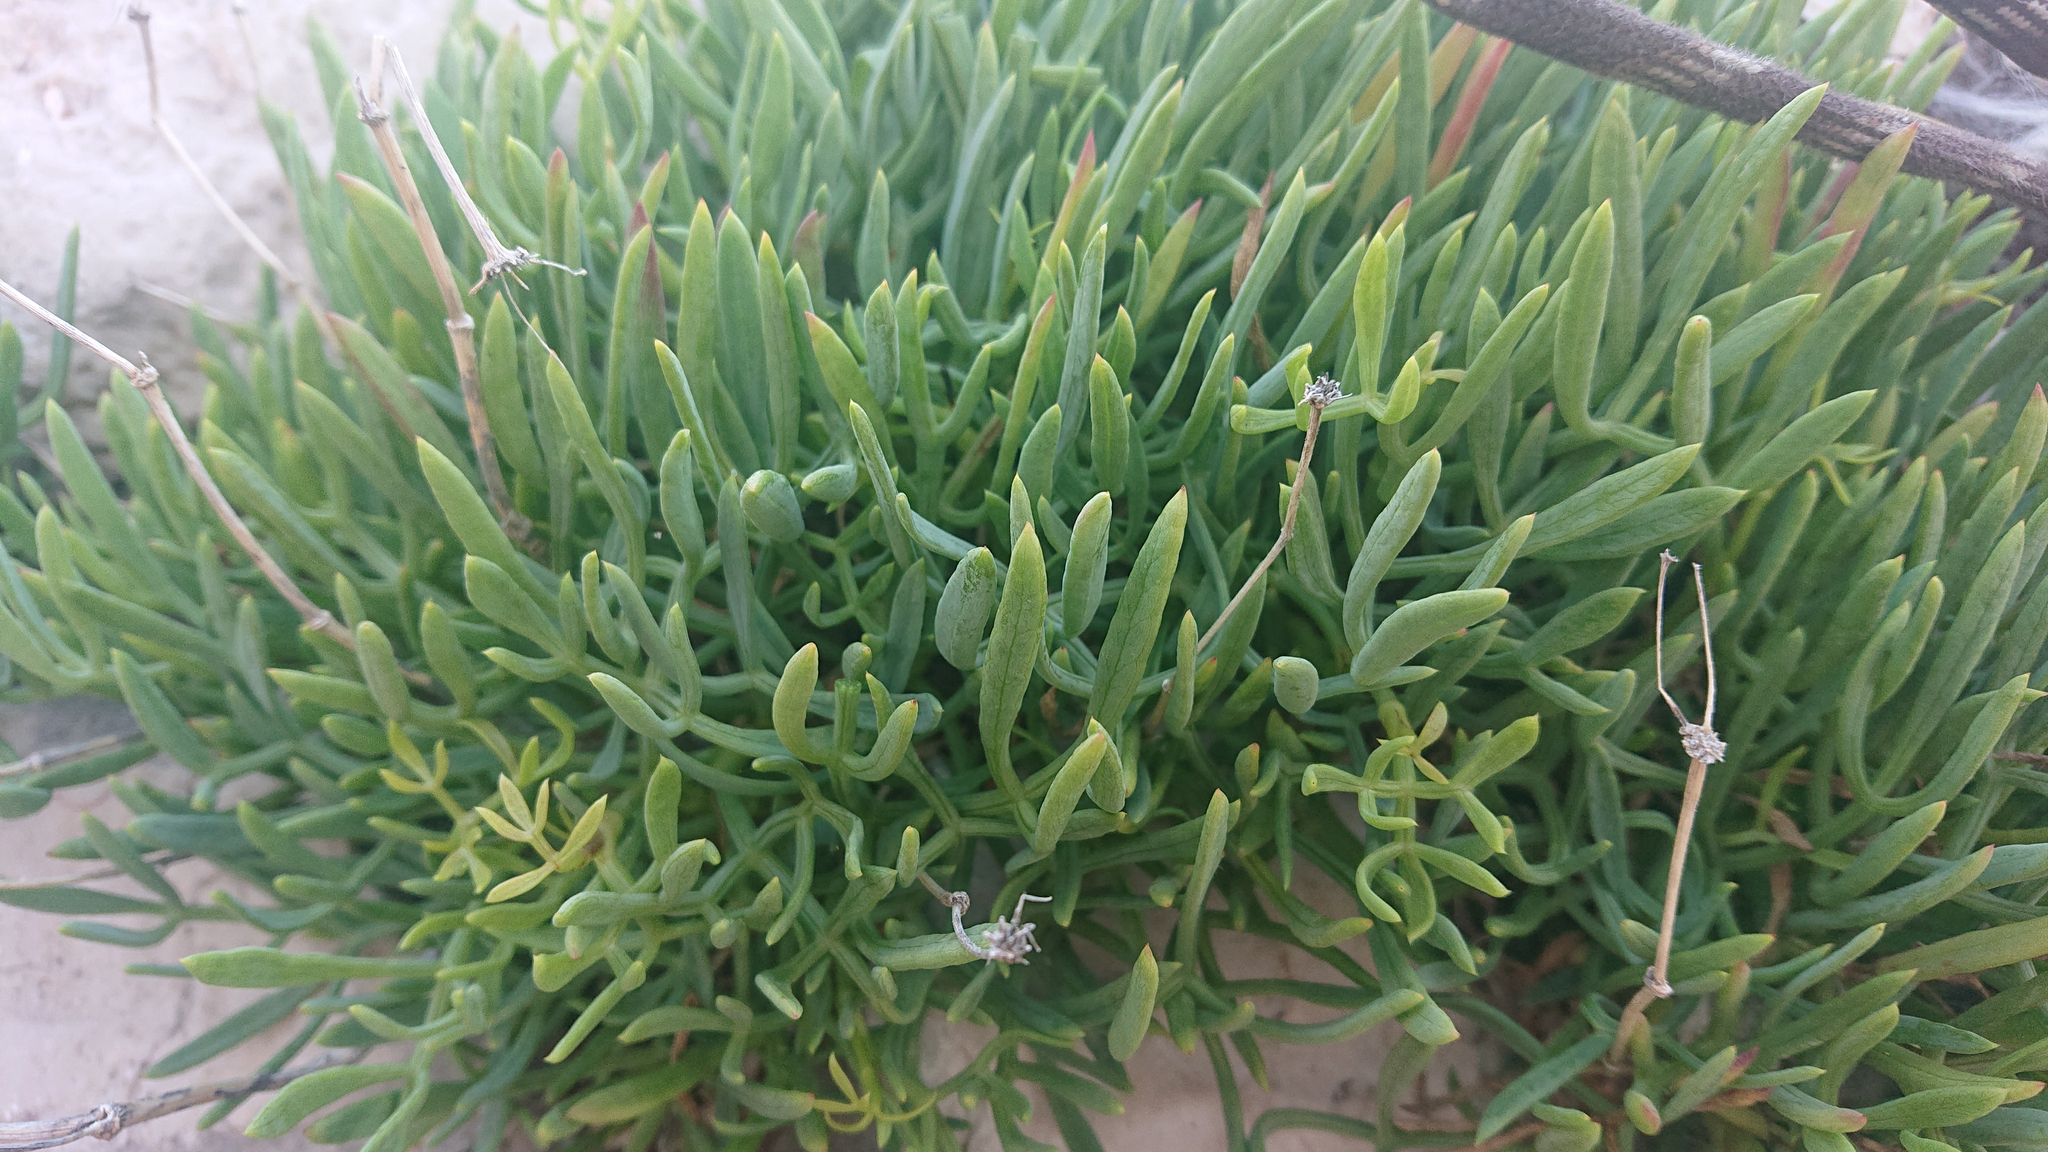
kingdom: Plantae
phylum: Tracheophyta
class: Magnoliopsida
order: Apiales
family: Apiaceae
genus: Crithmum
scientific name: Crithmum maritimum
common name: Rock samphire
